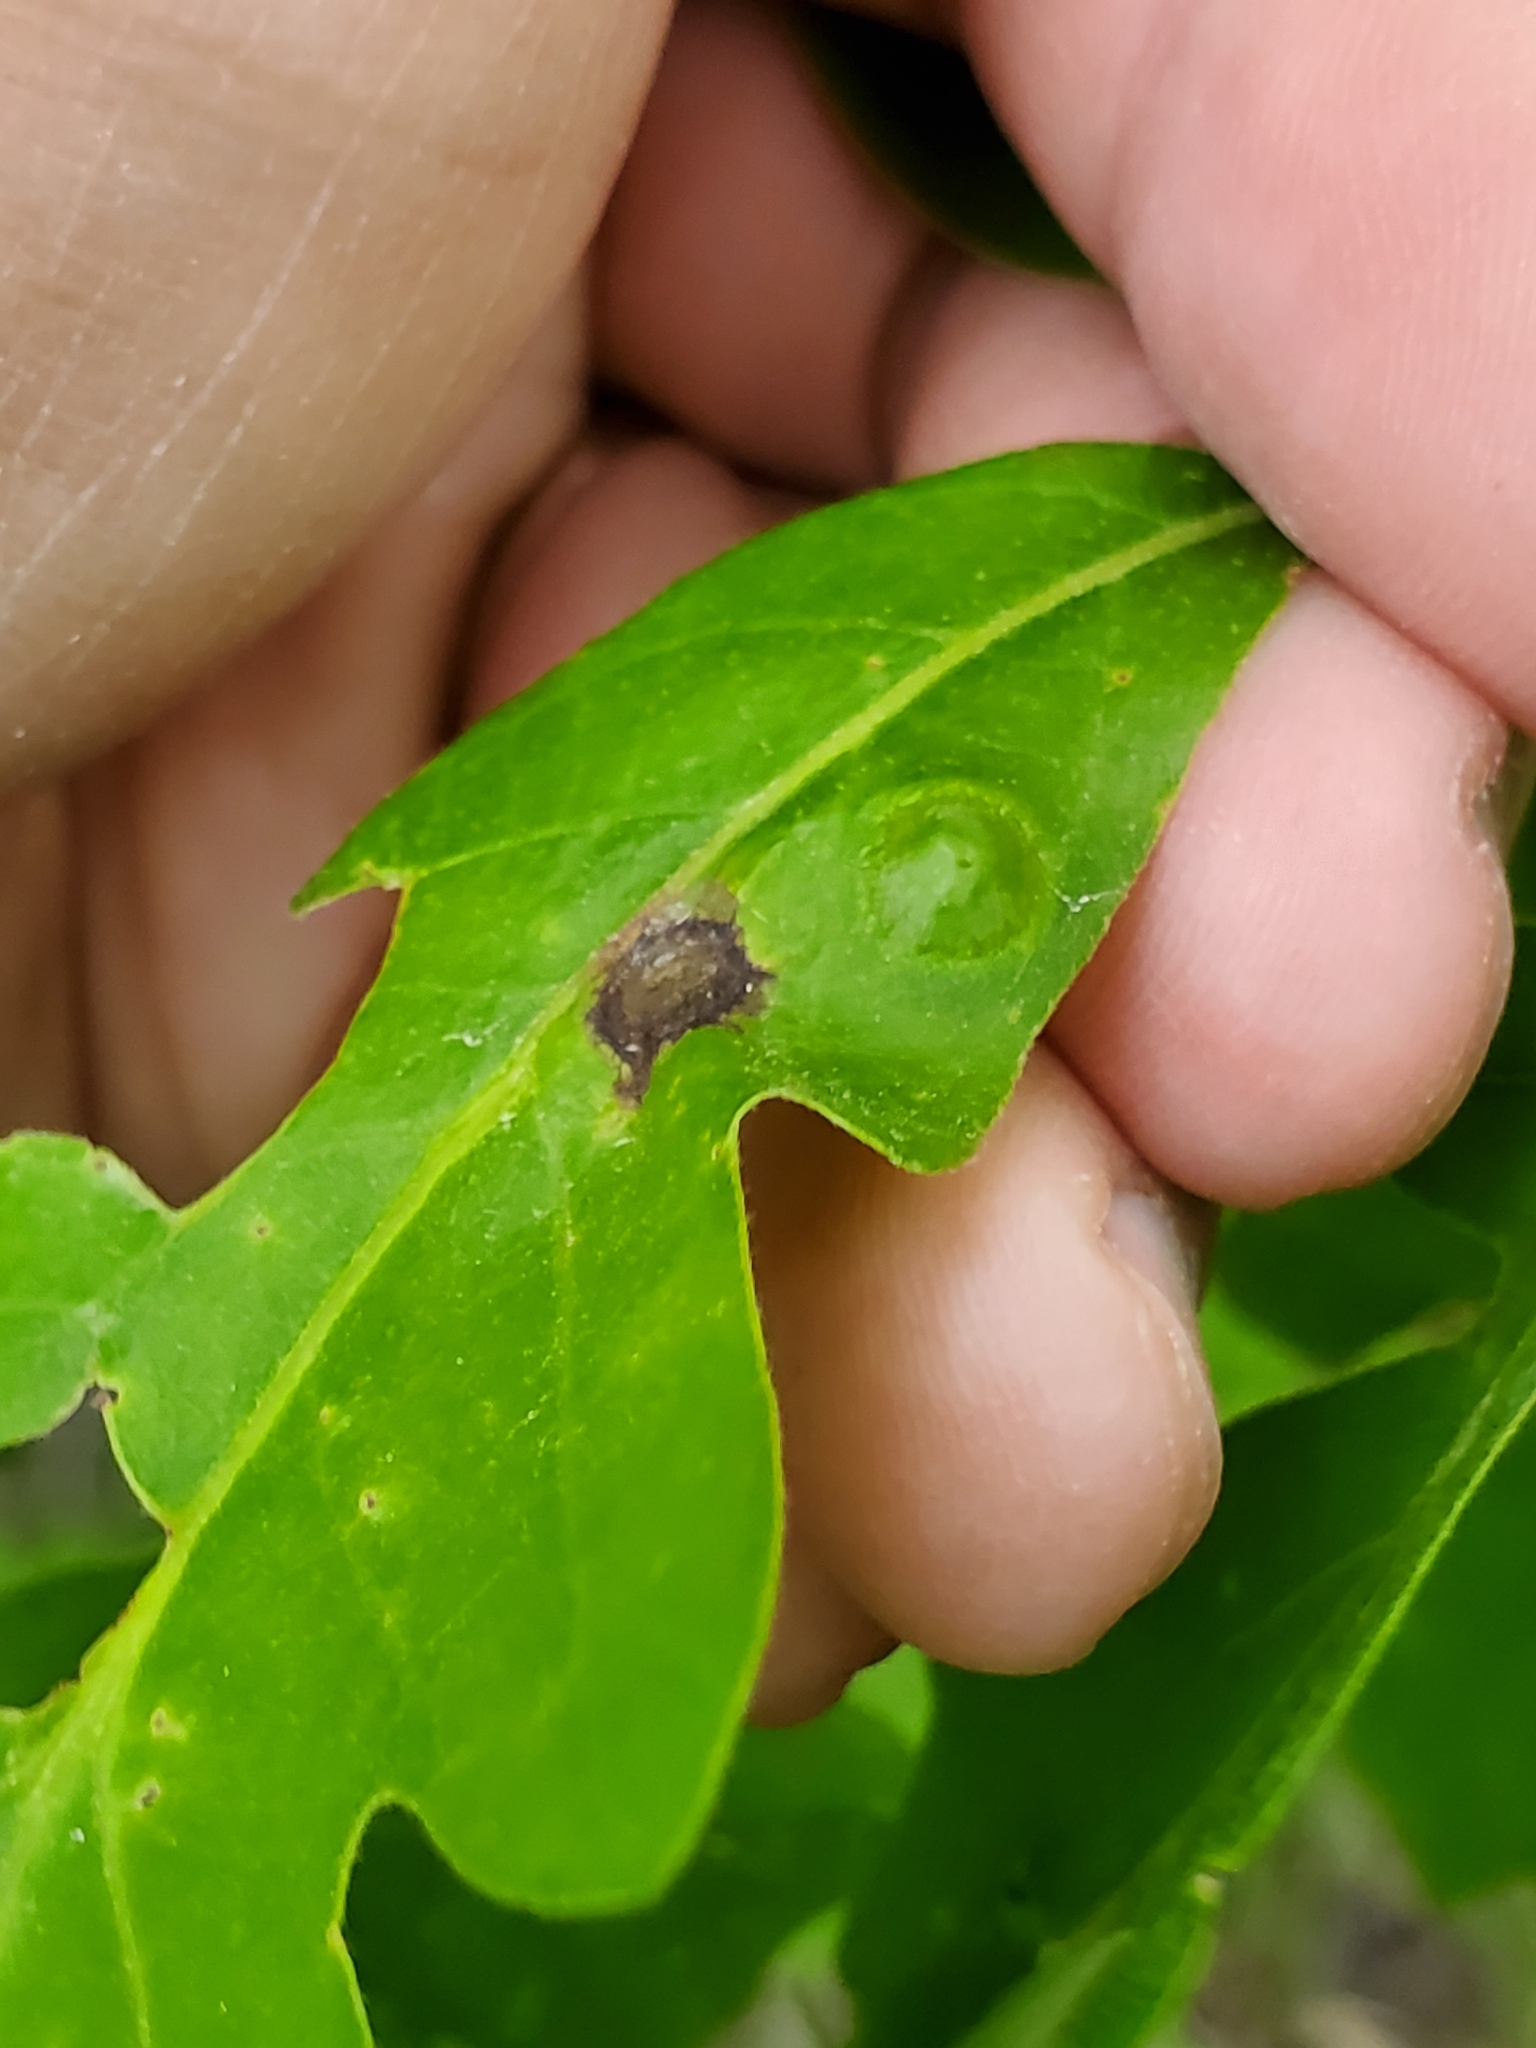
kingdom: Animalia
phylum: Arthropoda
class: Insecta
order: Hymenoptera
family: Cynipidae
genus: Callirhytis
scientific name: Callirhytis
